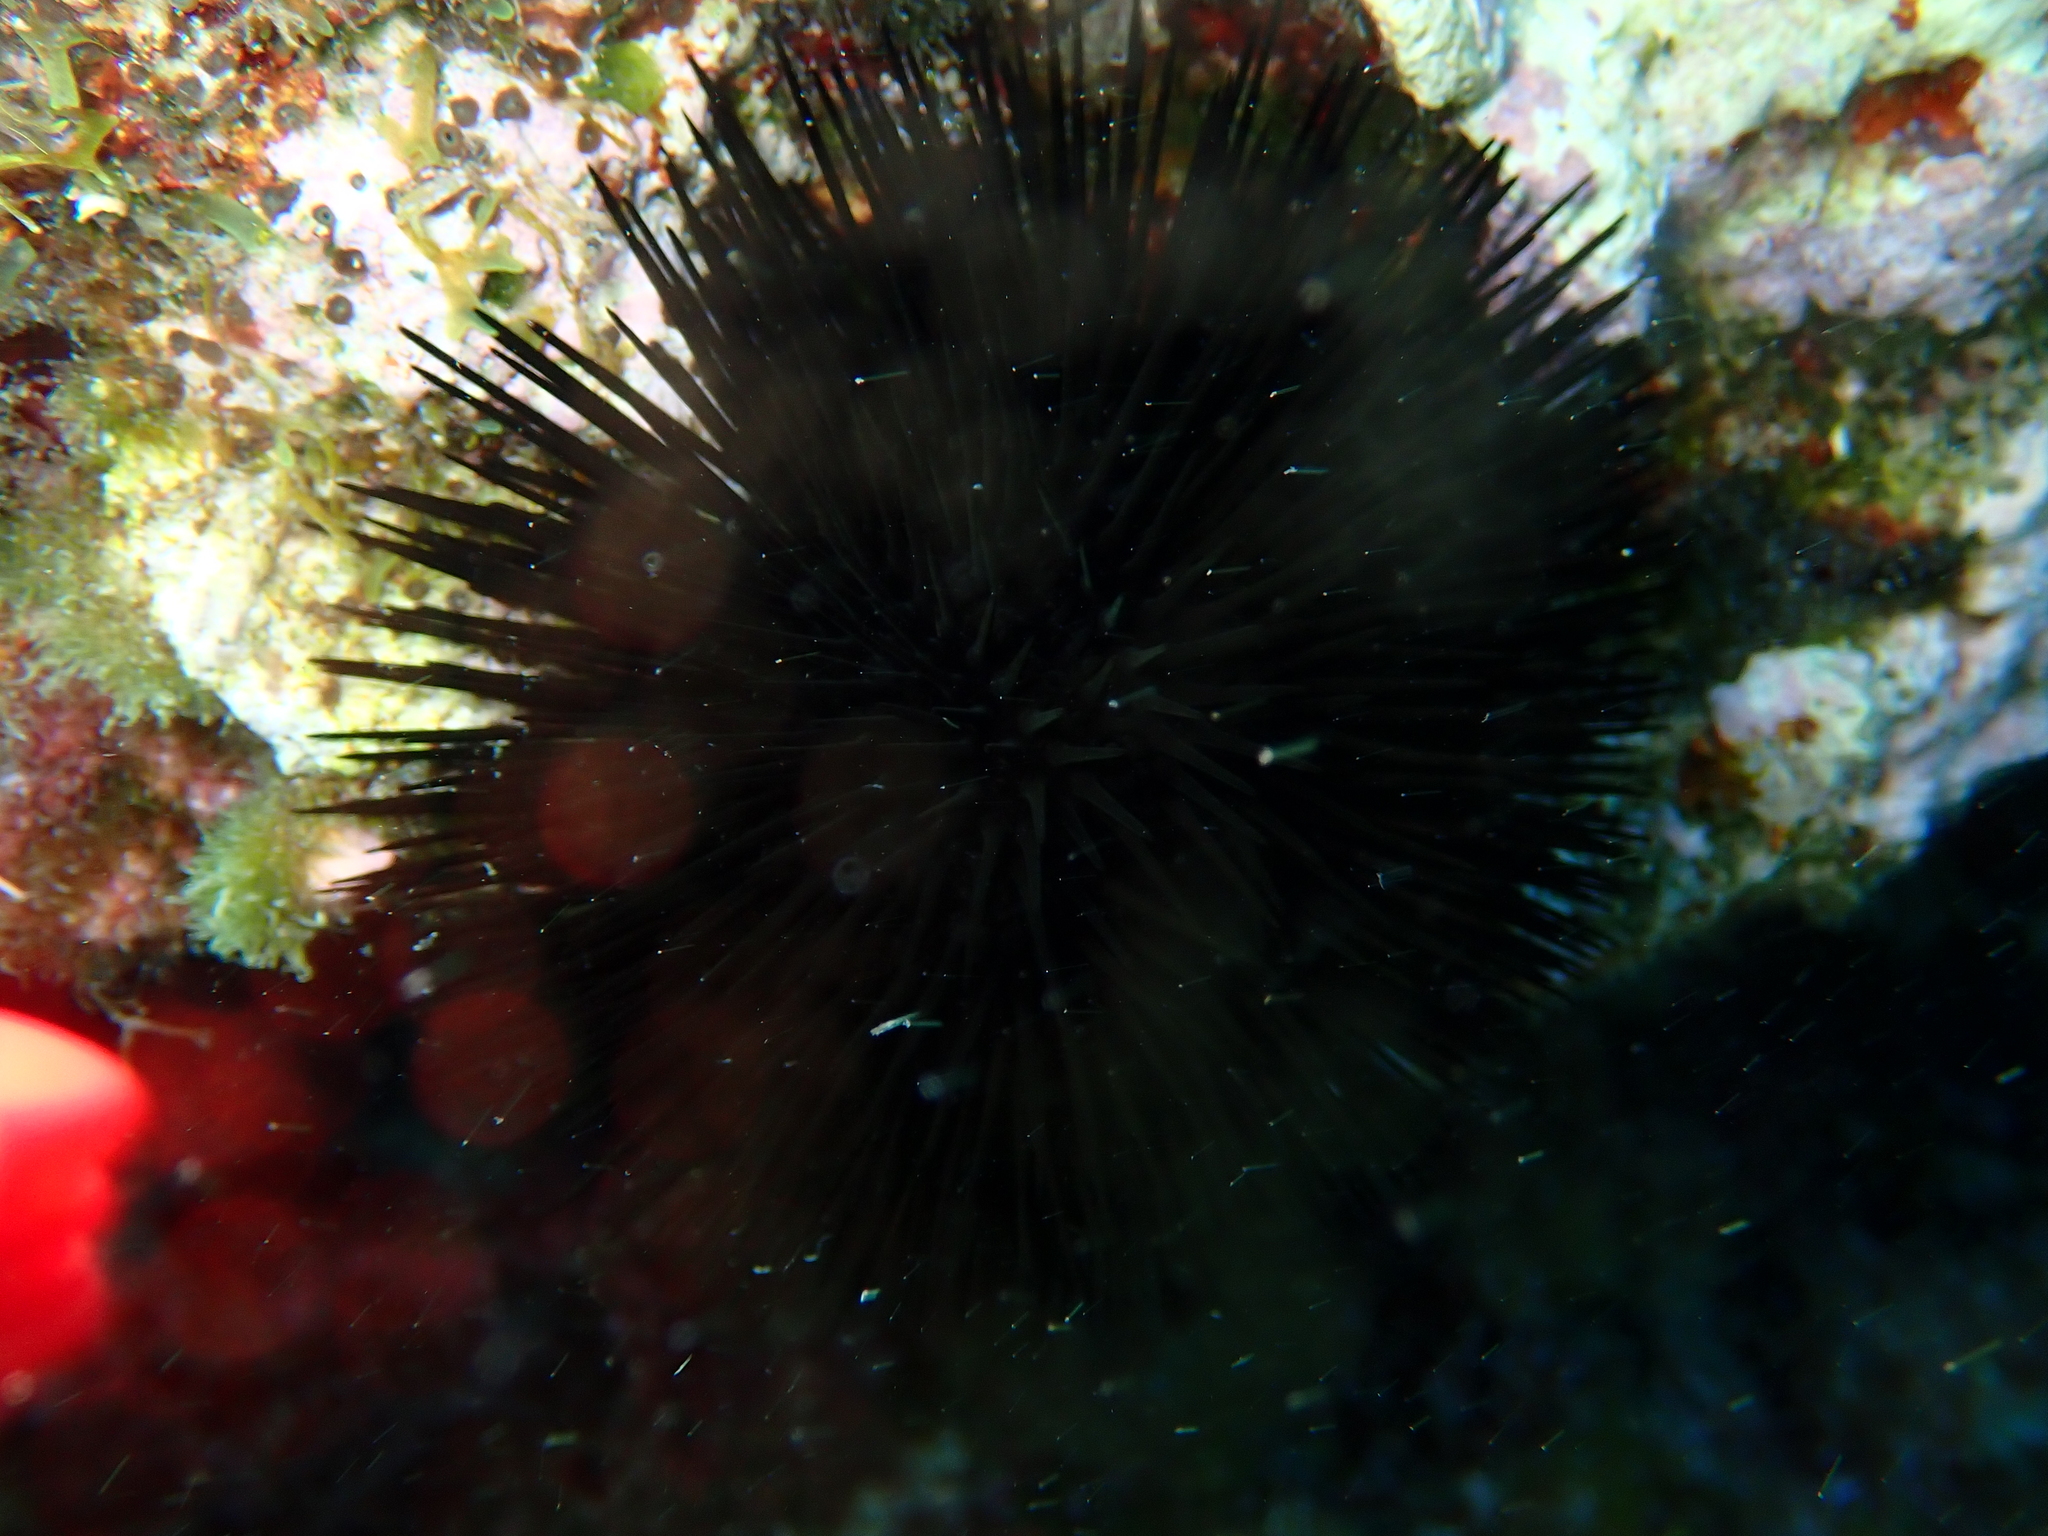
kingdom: Animalia
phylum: Echinodermata
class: Echinoidea
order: Arbacioida
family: Arbaciidae
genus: Arbacia
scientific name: Arbacia lixula
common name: Black sea urchin
